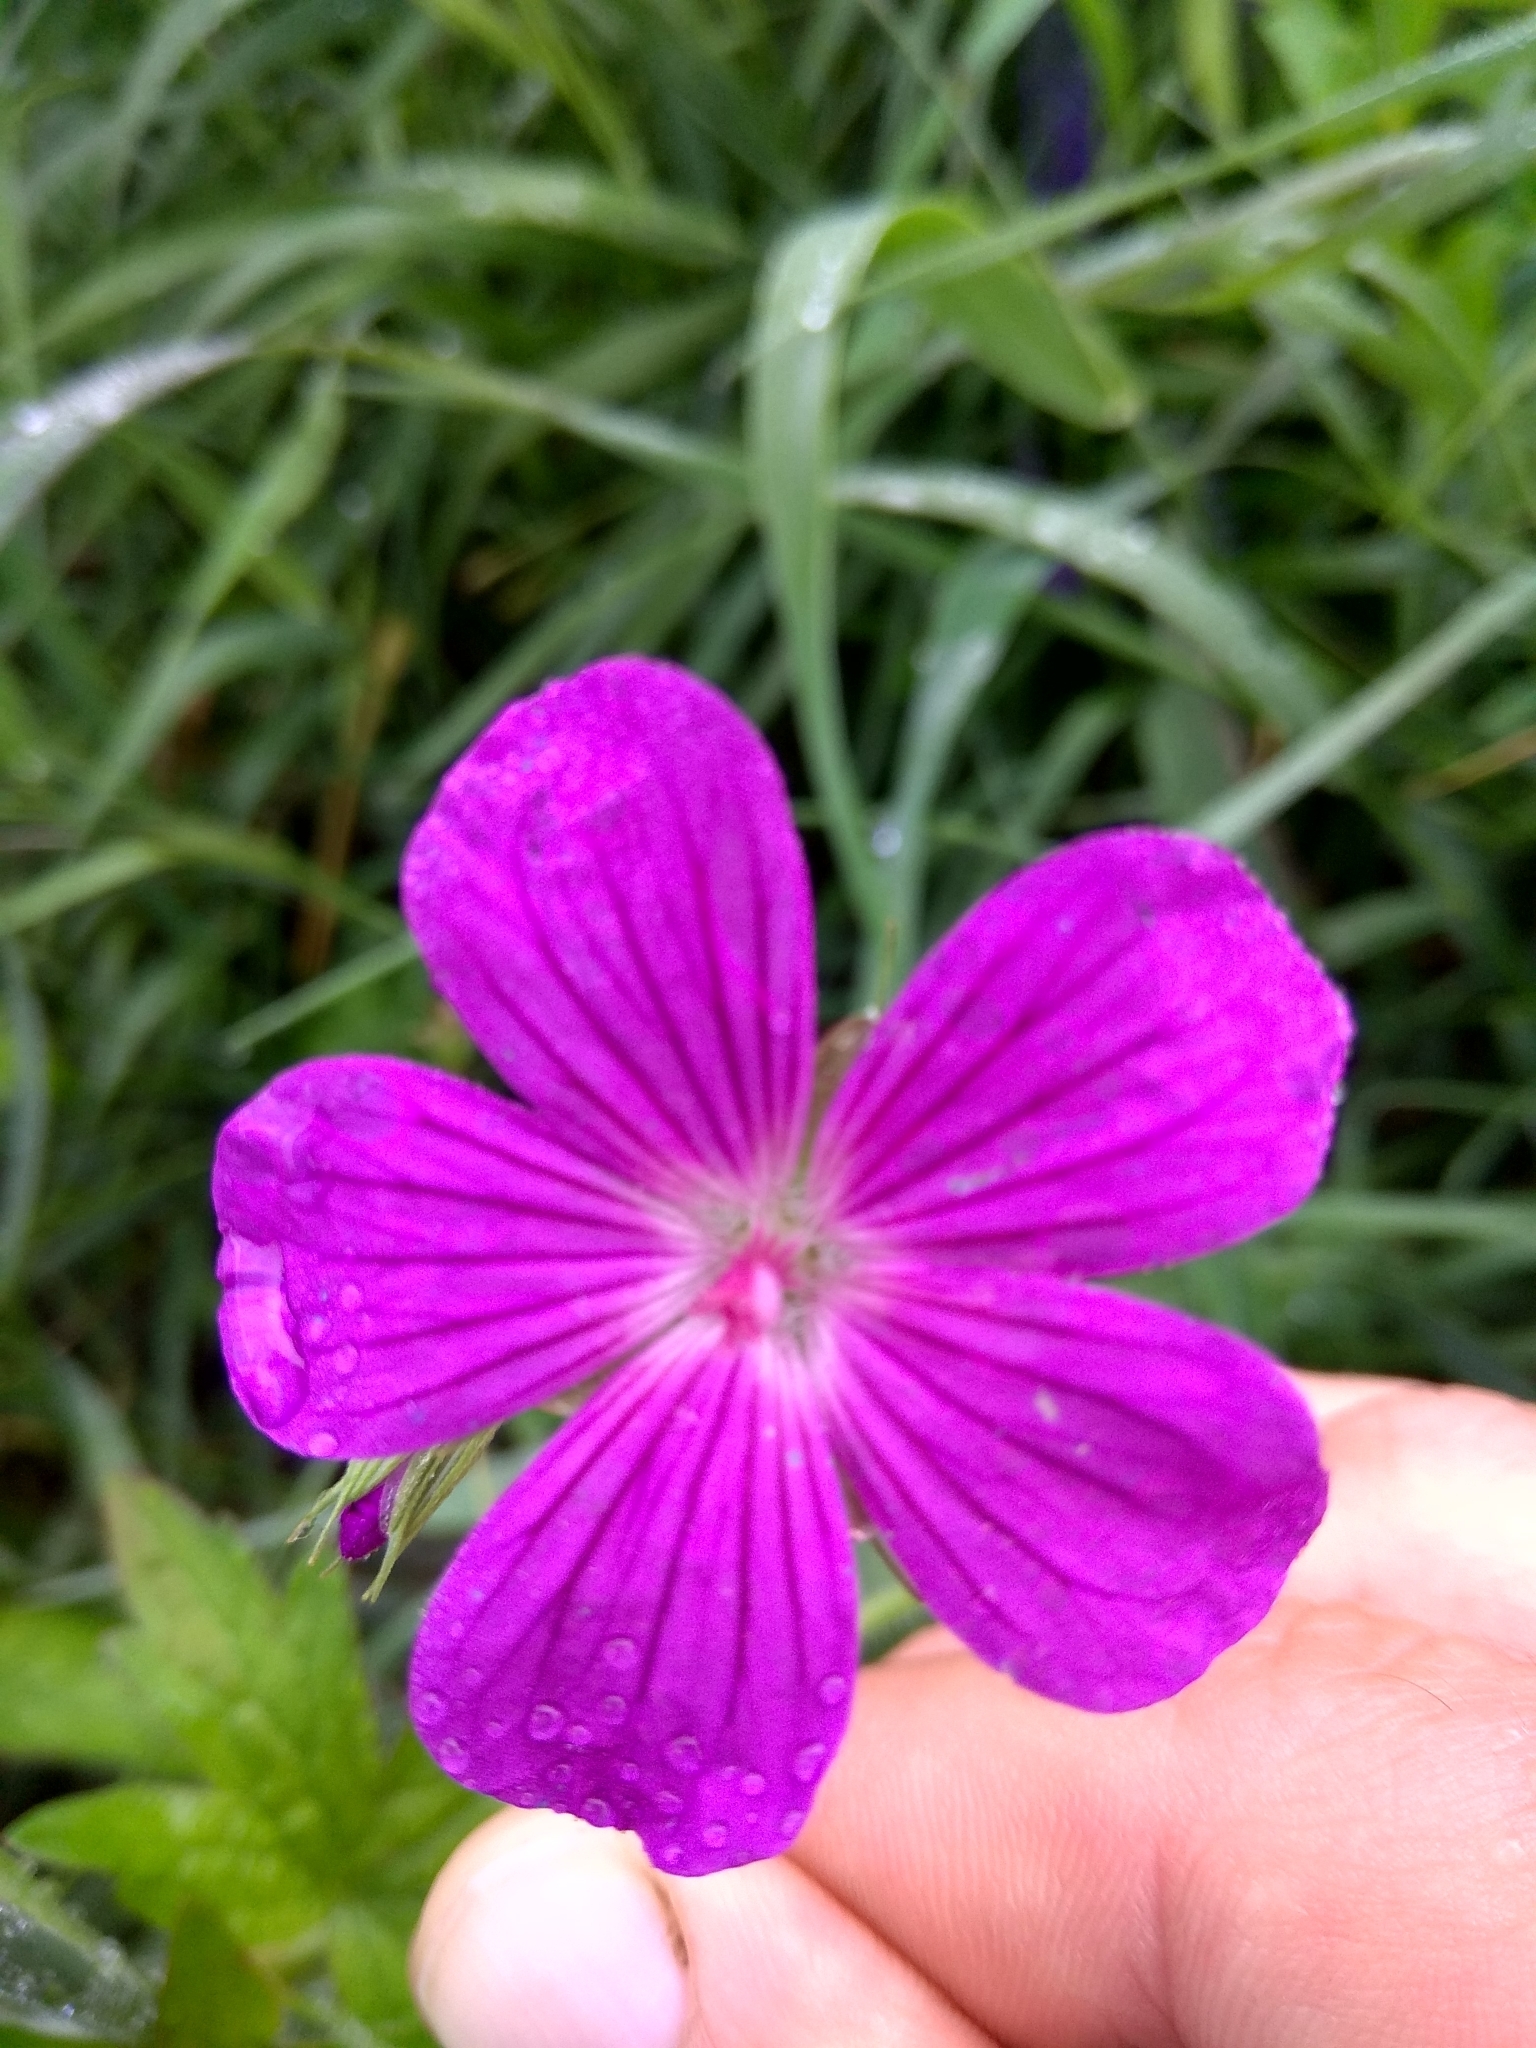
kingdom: Plantae
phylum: Tracheophyta
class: Magnoliopsida
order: Geraniales
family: Geraniaceae
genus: Geranium
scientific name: Geranium palustre
